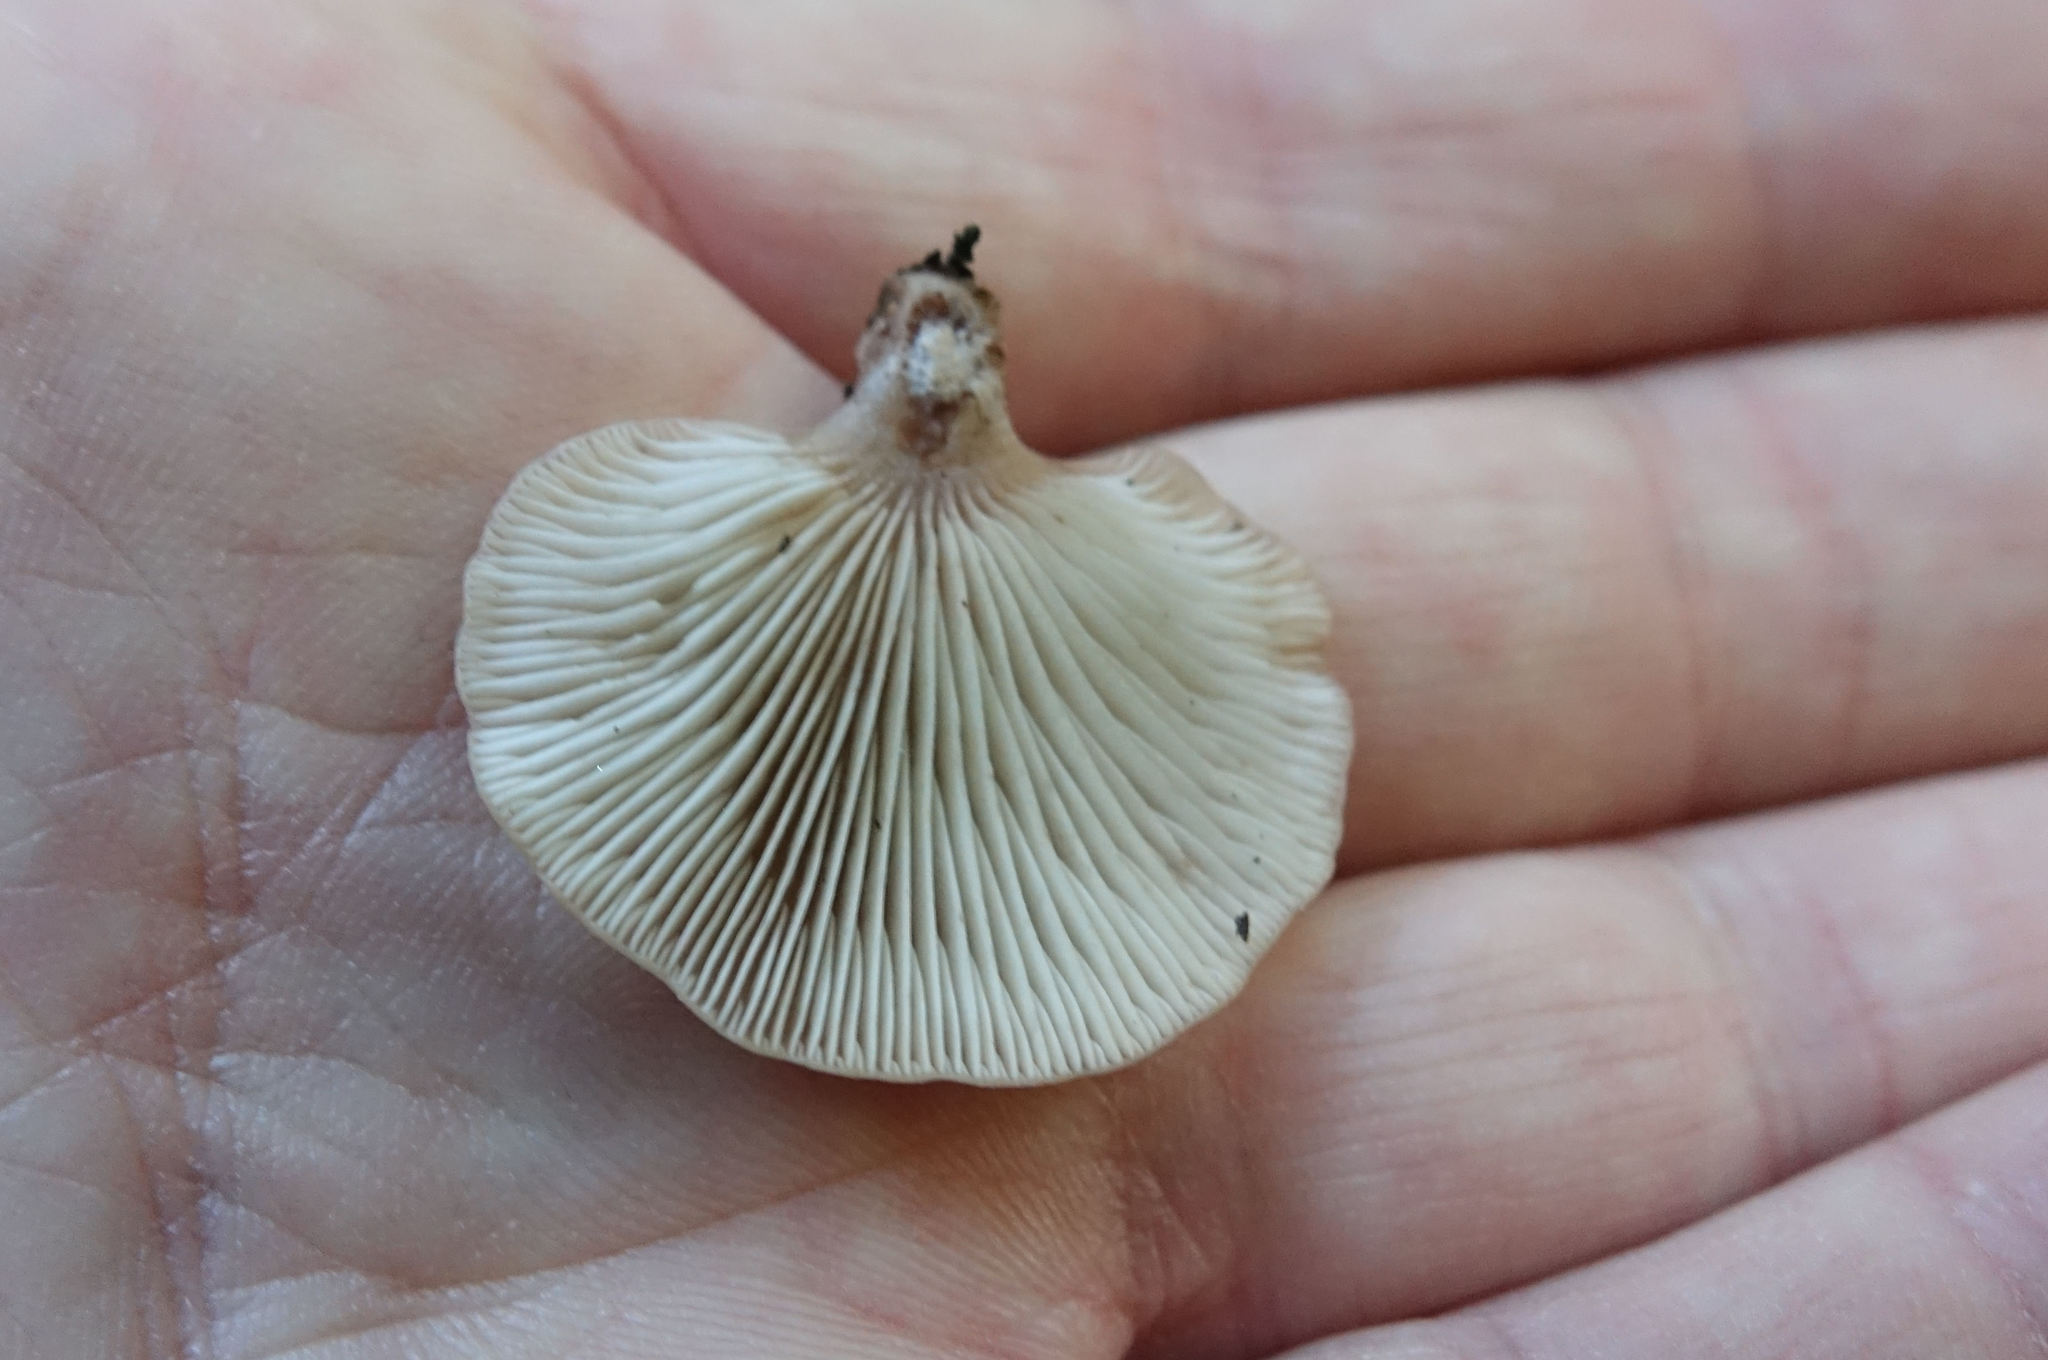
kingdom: Fungi
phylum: Basidiomycota
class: Agaricomycetes
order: Agaricales
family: Mycenaceae
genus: Panellus
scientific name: Panellus longinquus
